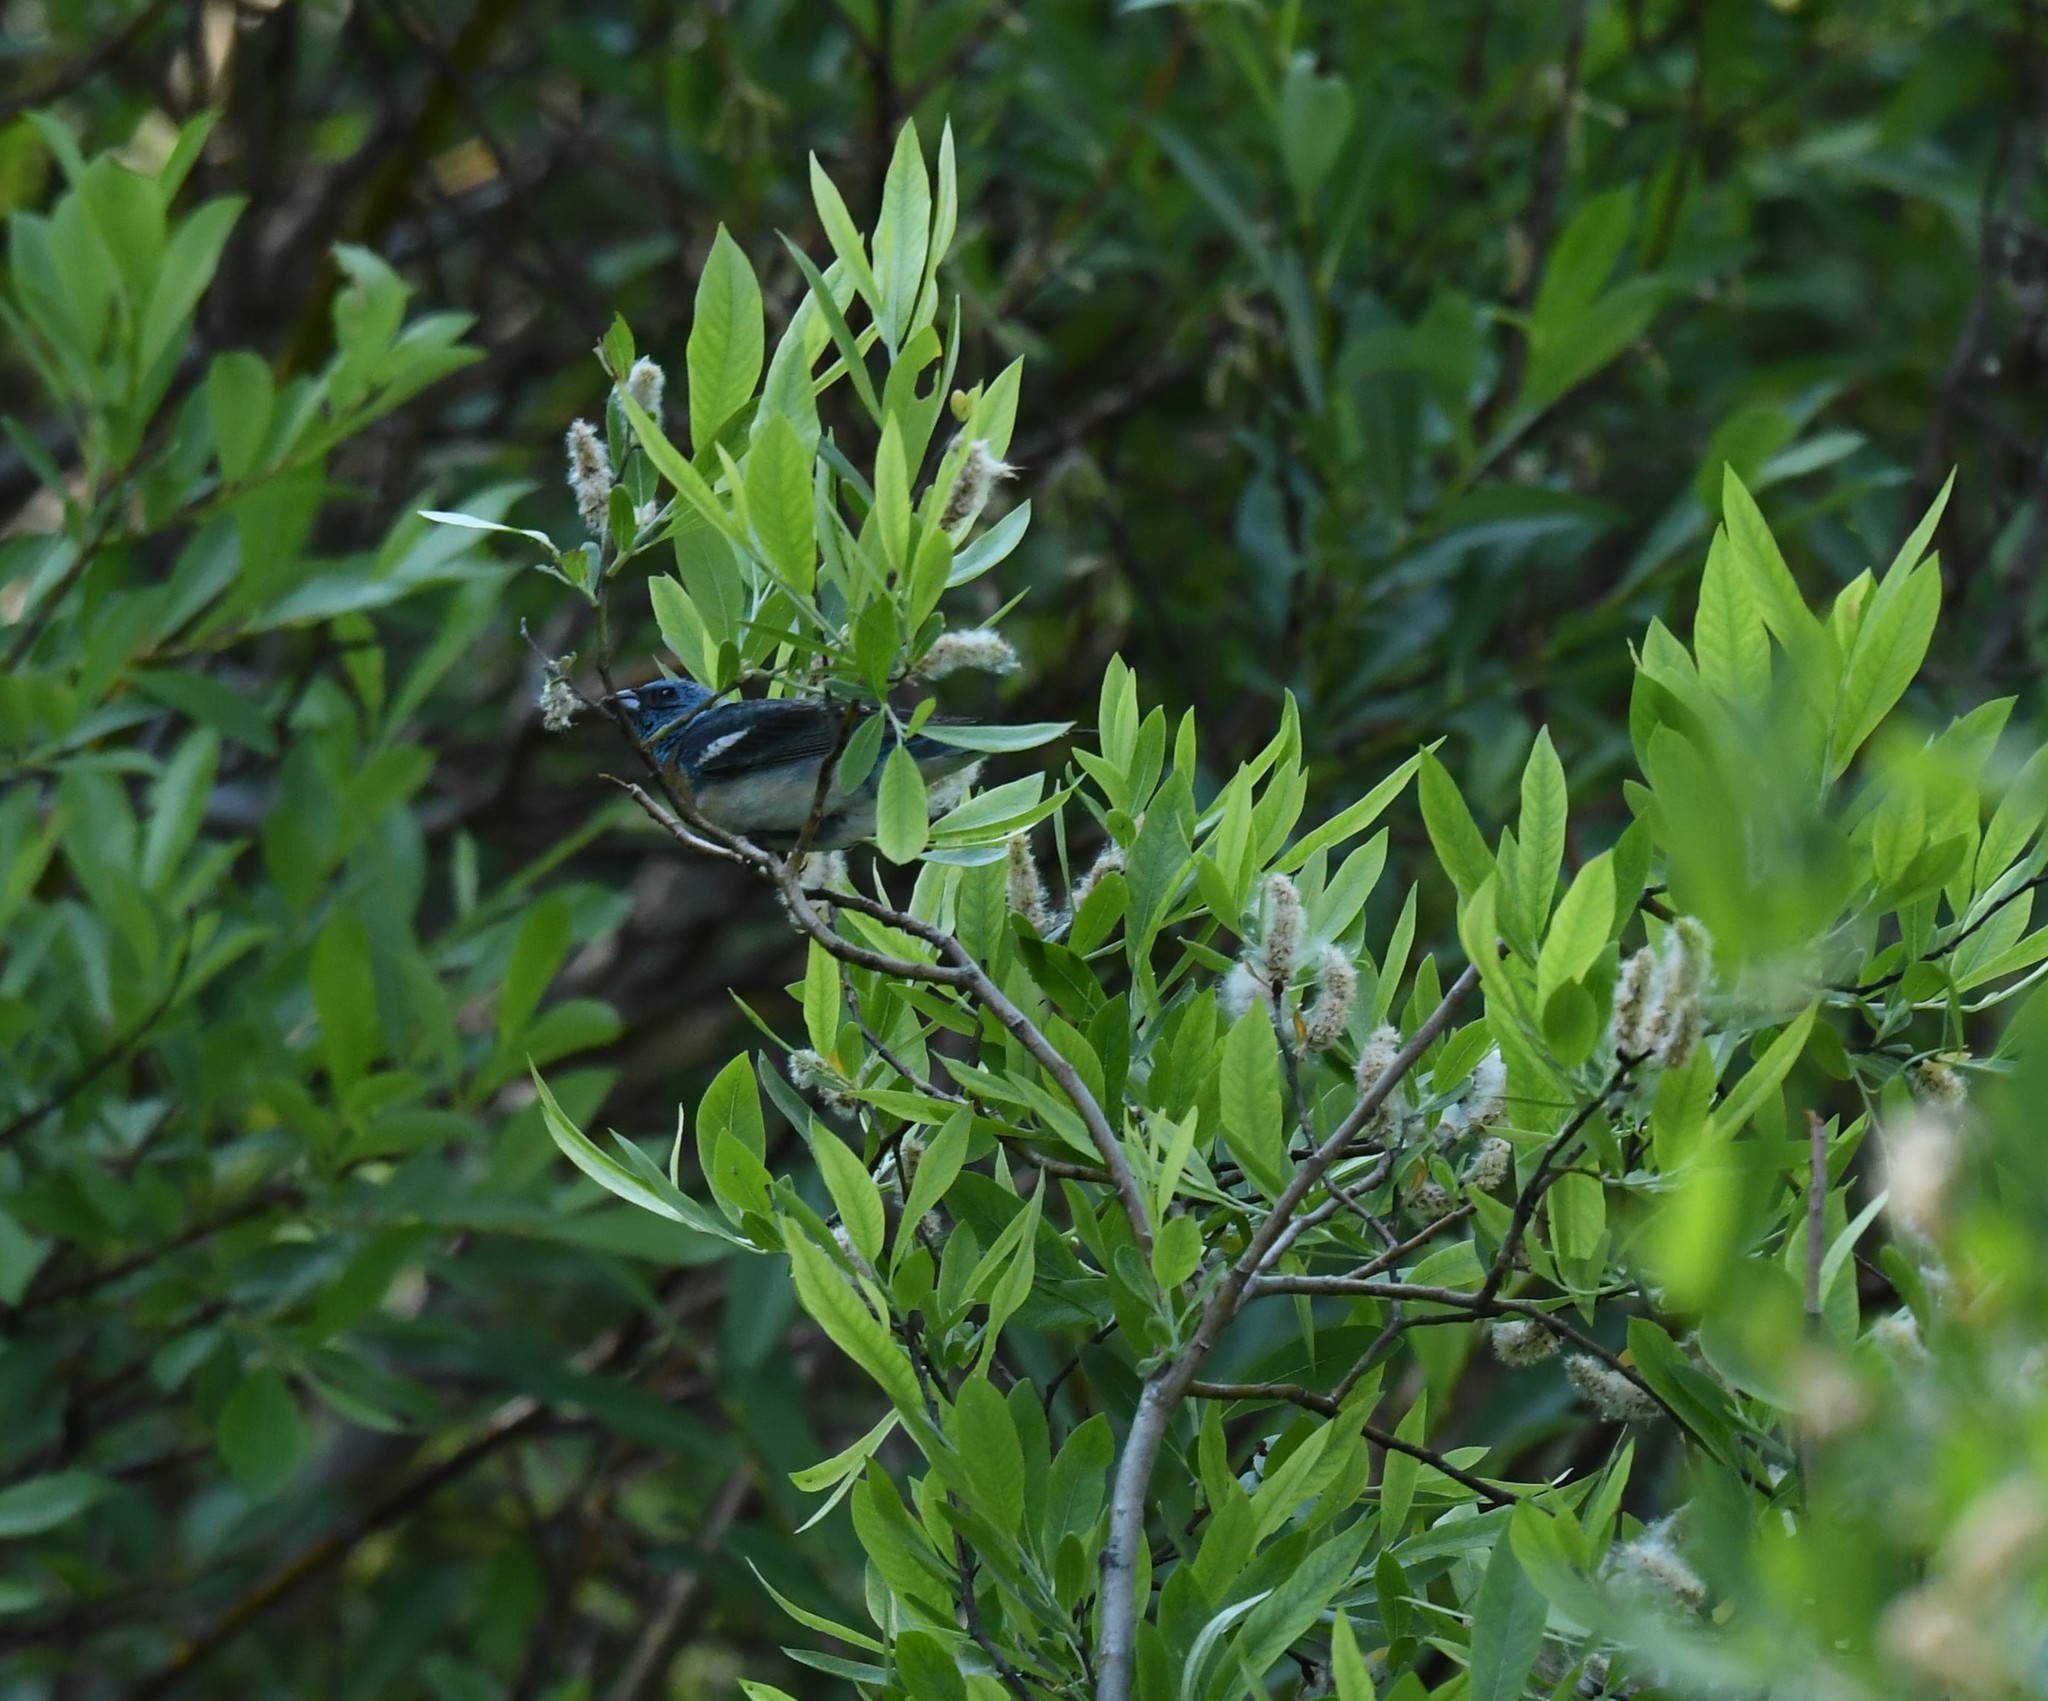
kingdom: Animalia
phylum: Chordata
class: Aves
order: Passeriformes
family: Cardinalidae
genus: Passerina
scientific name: Passerina amoena
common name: Lazuli bunting
